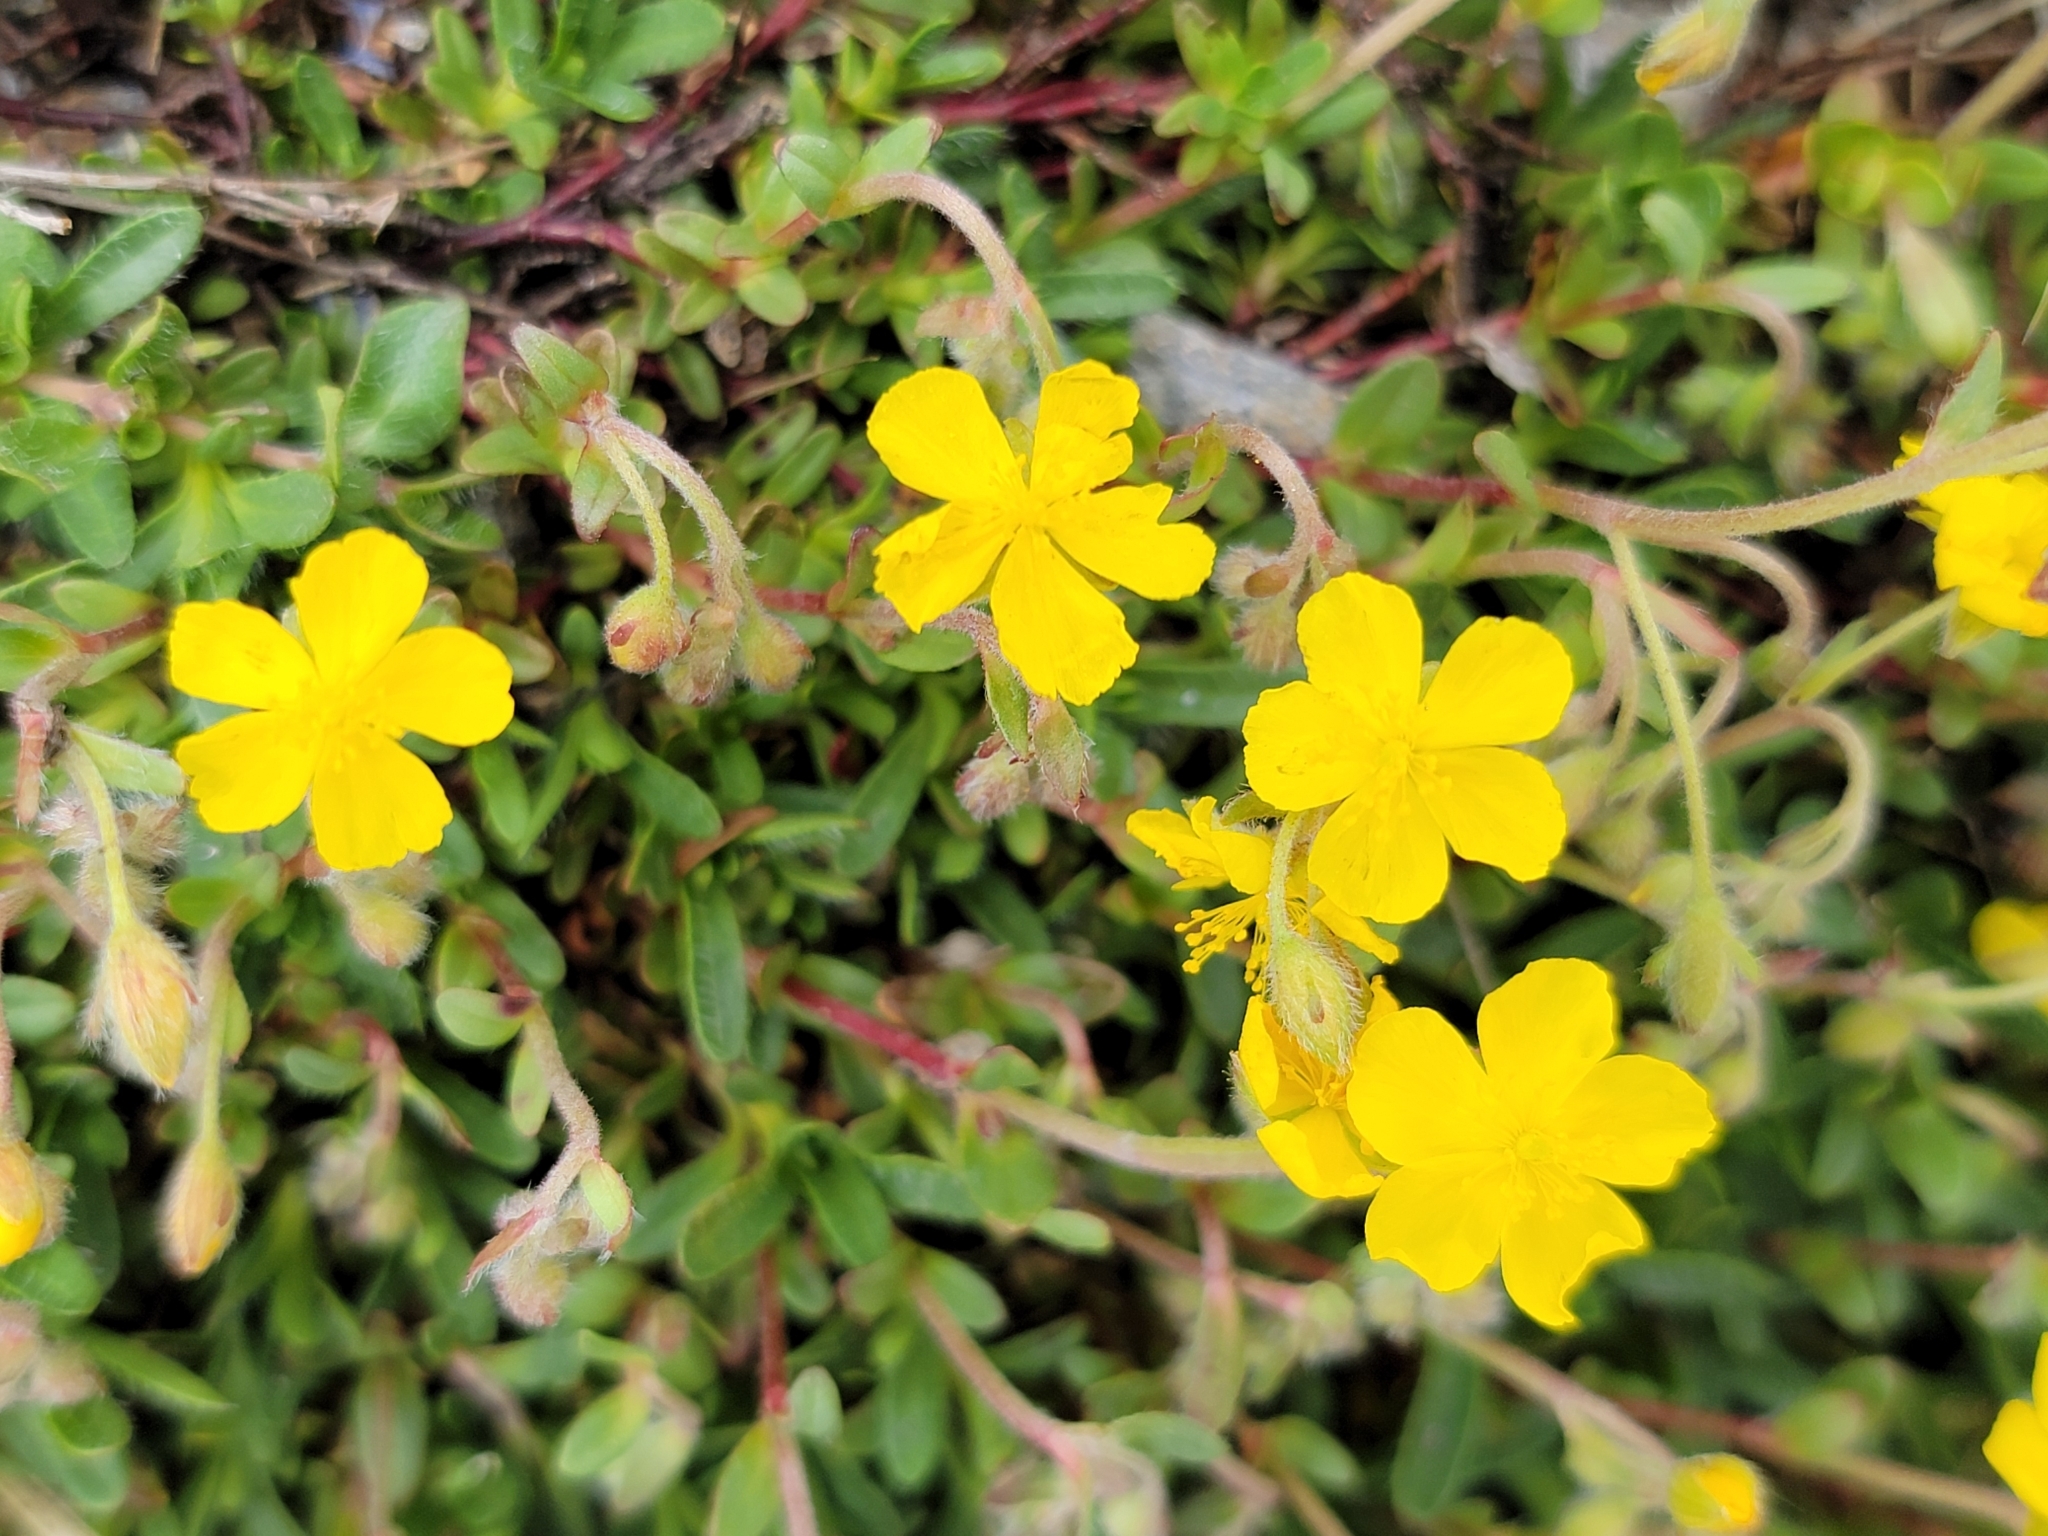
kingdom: Plantae
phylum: Tracheophyta
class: Magnoliopsida
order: Malvales
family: Cistaceae
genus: Helianthemum
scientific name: Helianthemum alpestre
